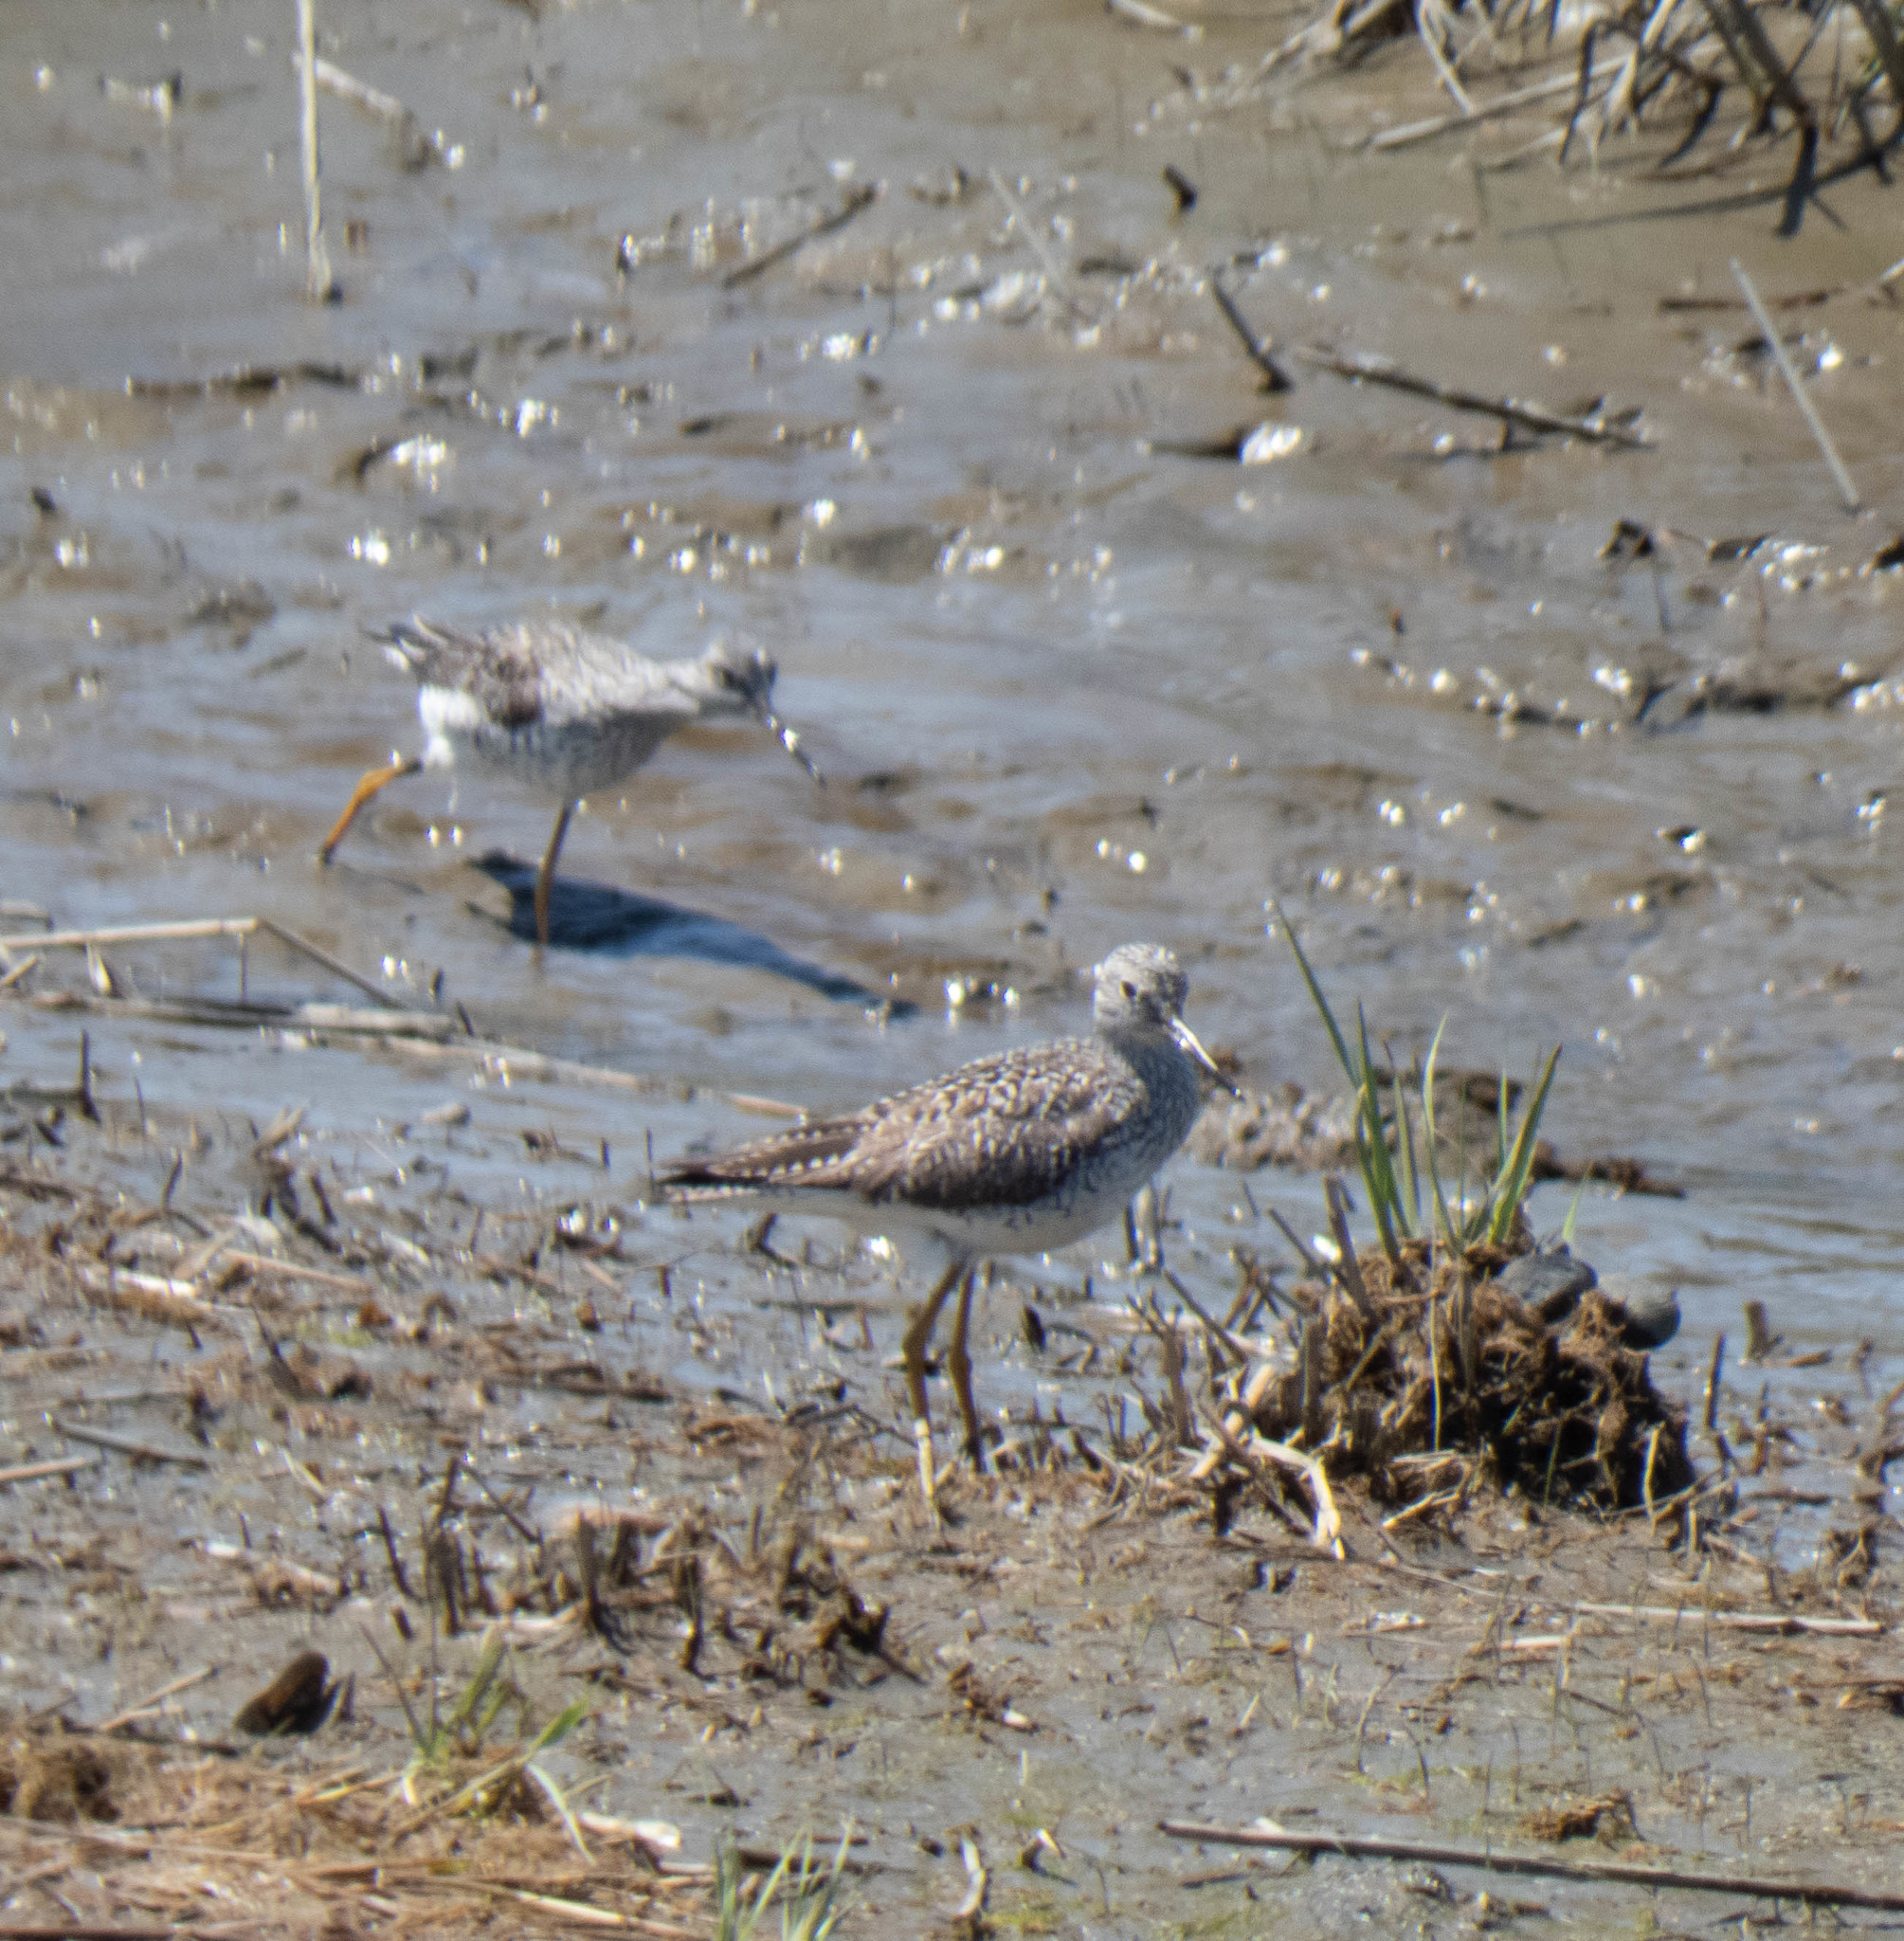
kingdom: Animalia
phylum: Chordata
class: Aves
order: Charadriiformes
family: Scolopacidae
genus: Tringa
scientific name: Tringa melanoleuca
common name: Greater yellowlegs
